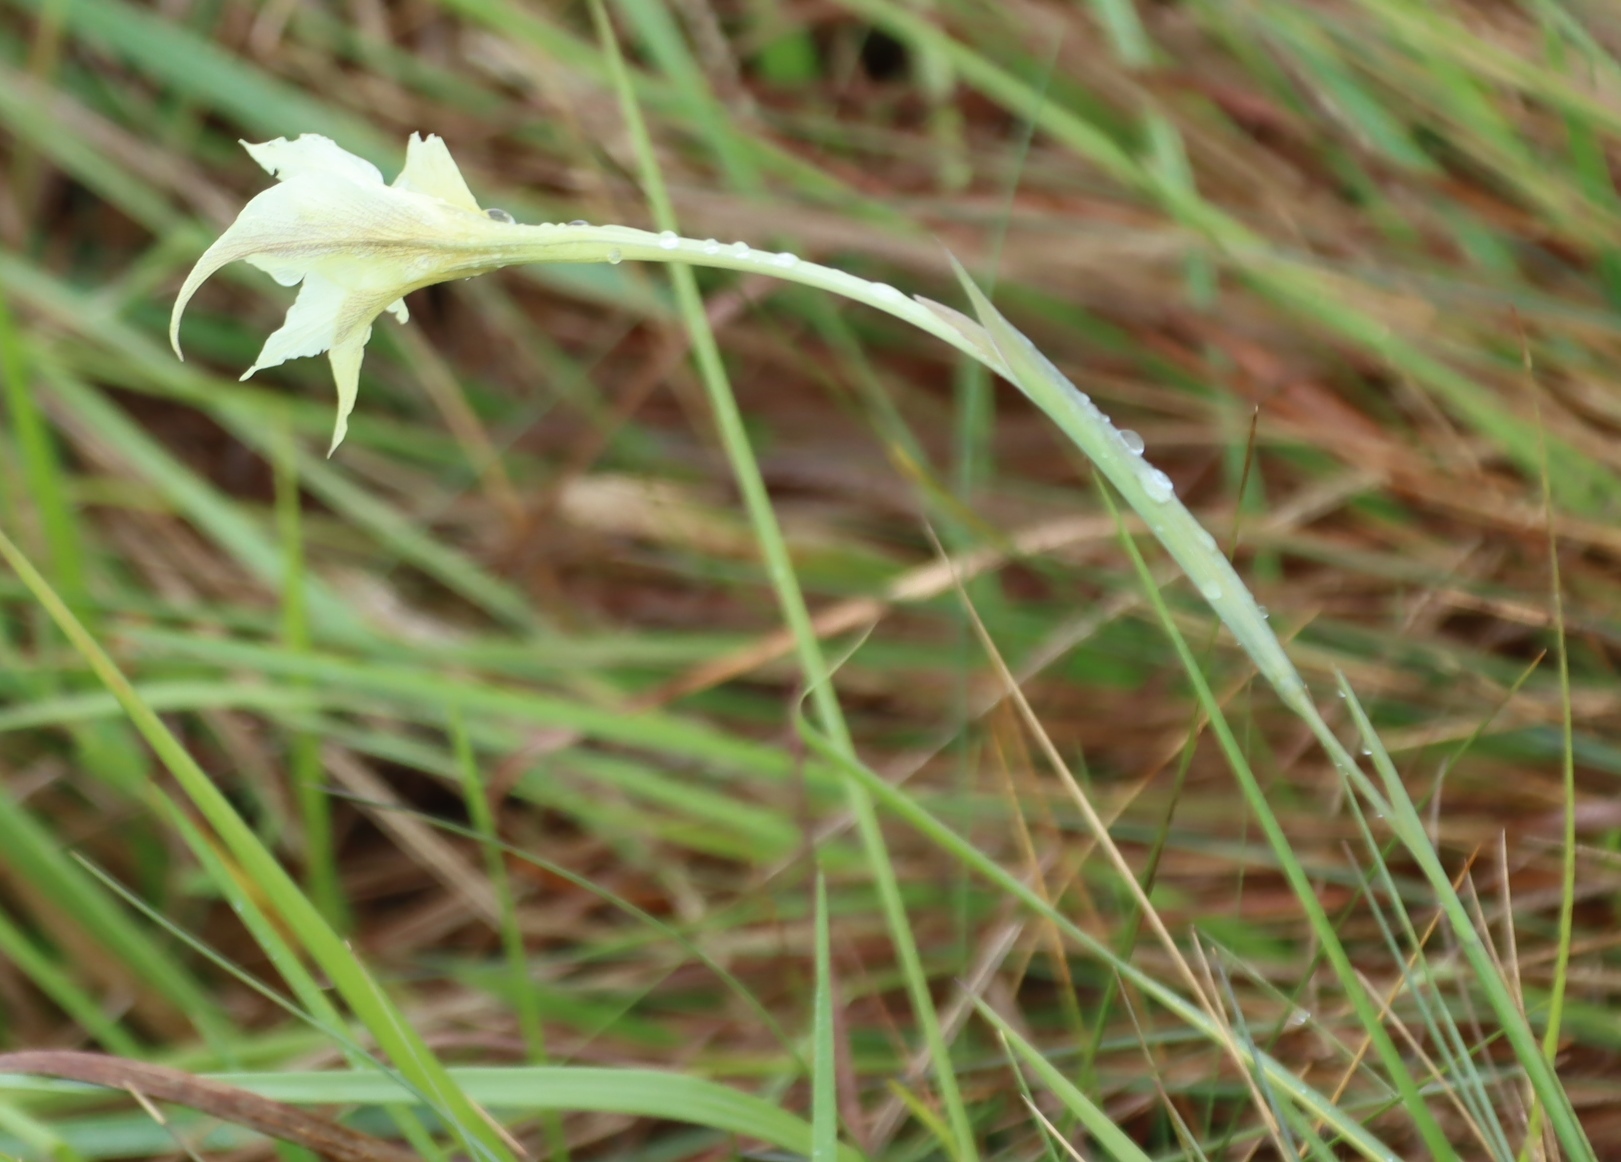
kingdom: Plantae
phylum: Tracheophyta
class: Liliopsida
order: Asparagales
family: Iridaceae
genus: Gladiolus
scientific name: Gladiolus longicollis
